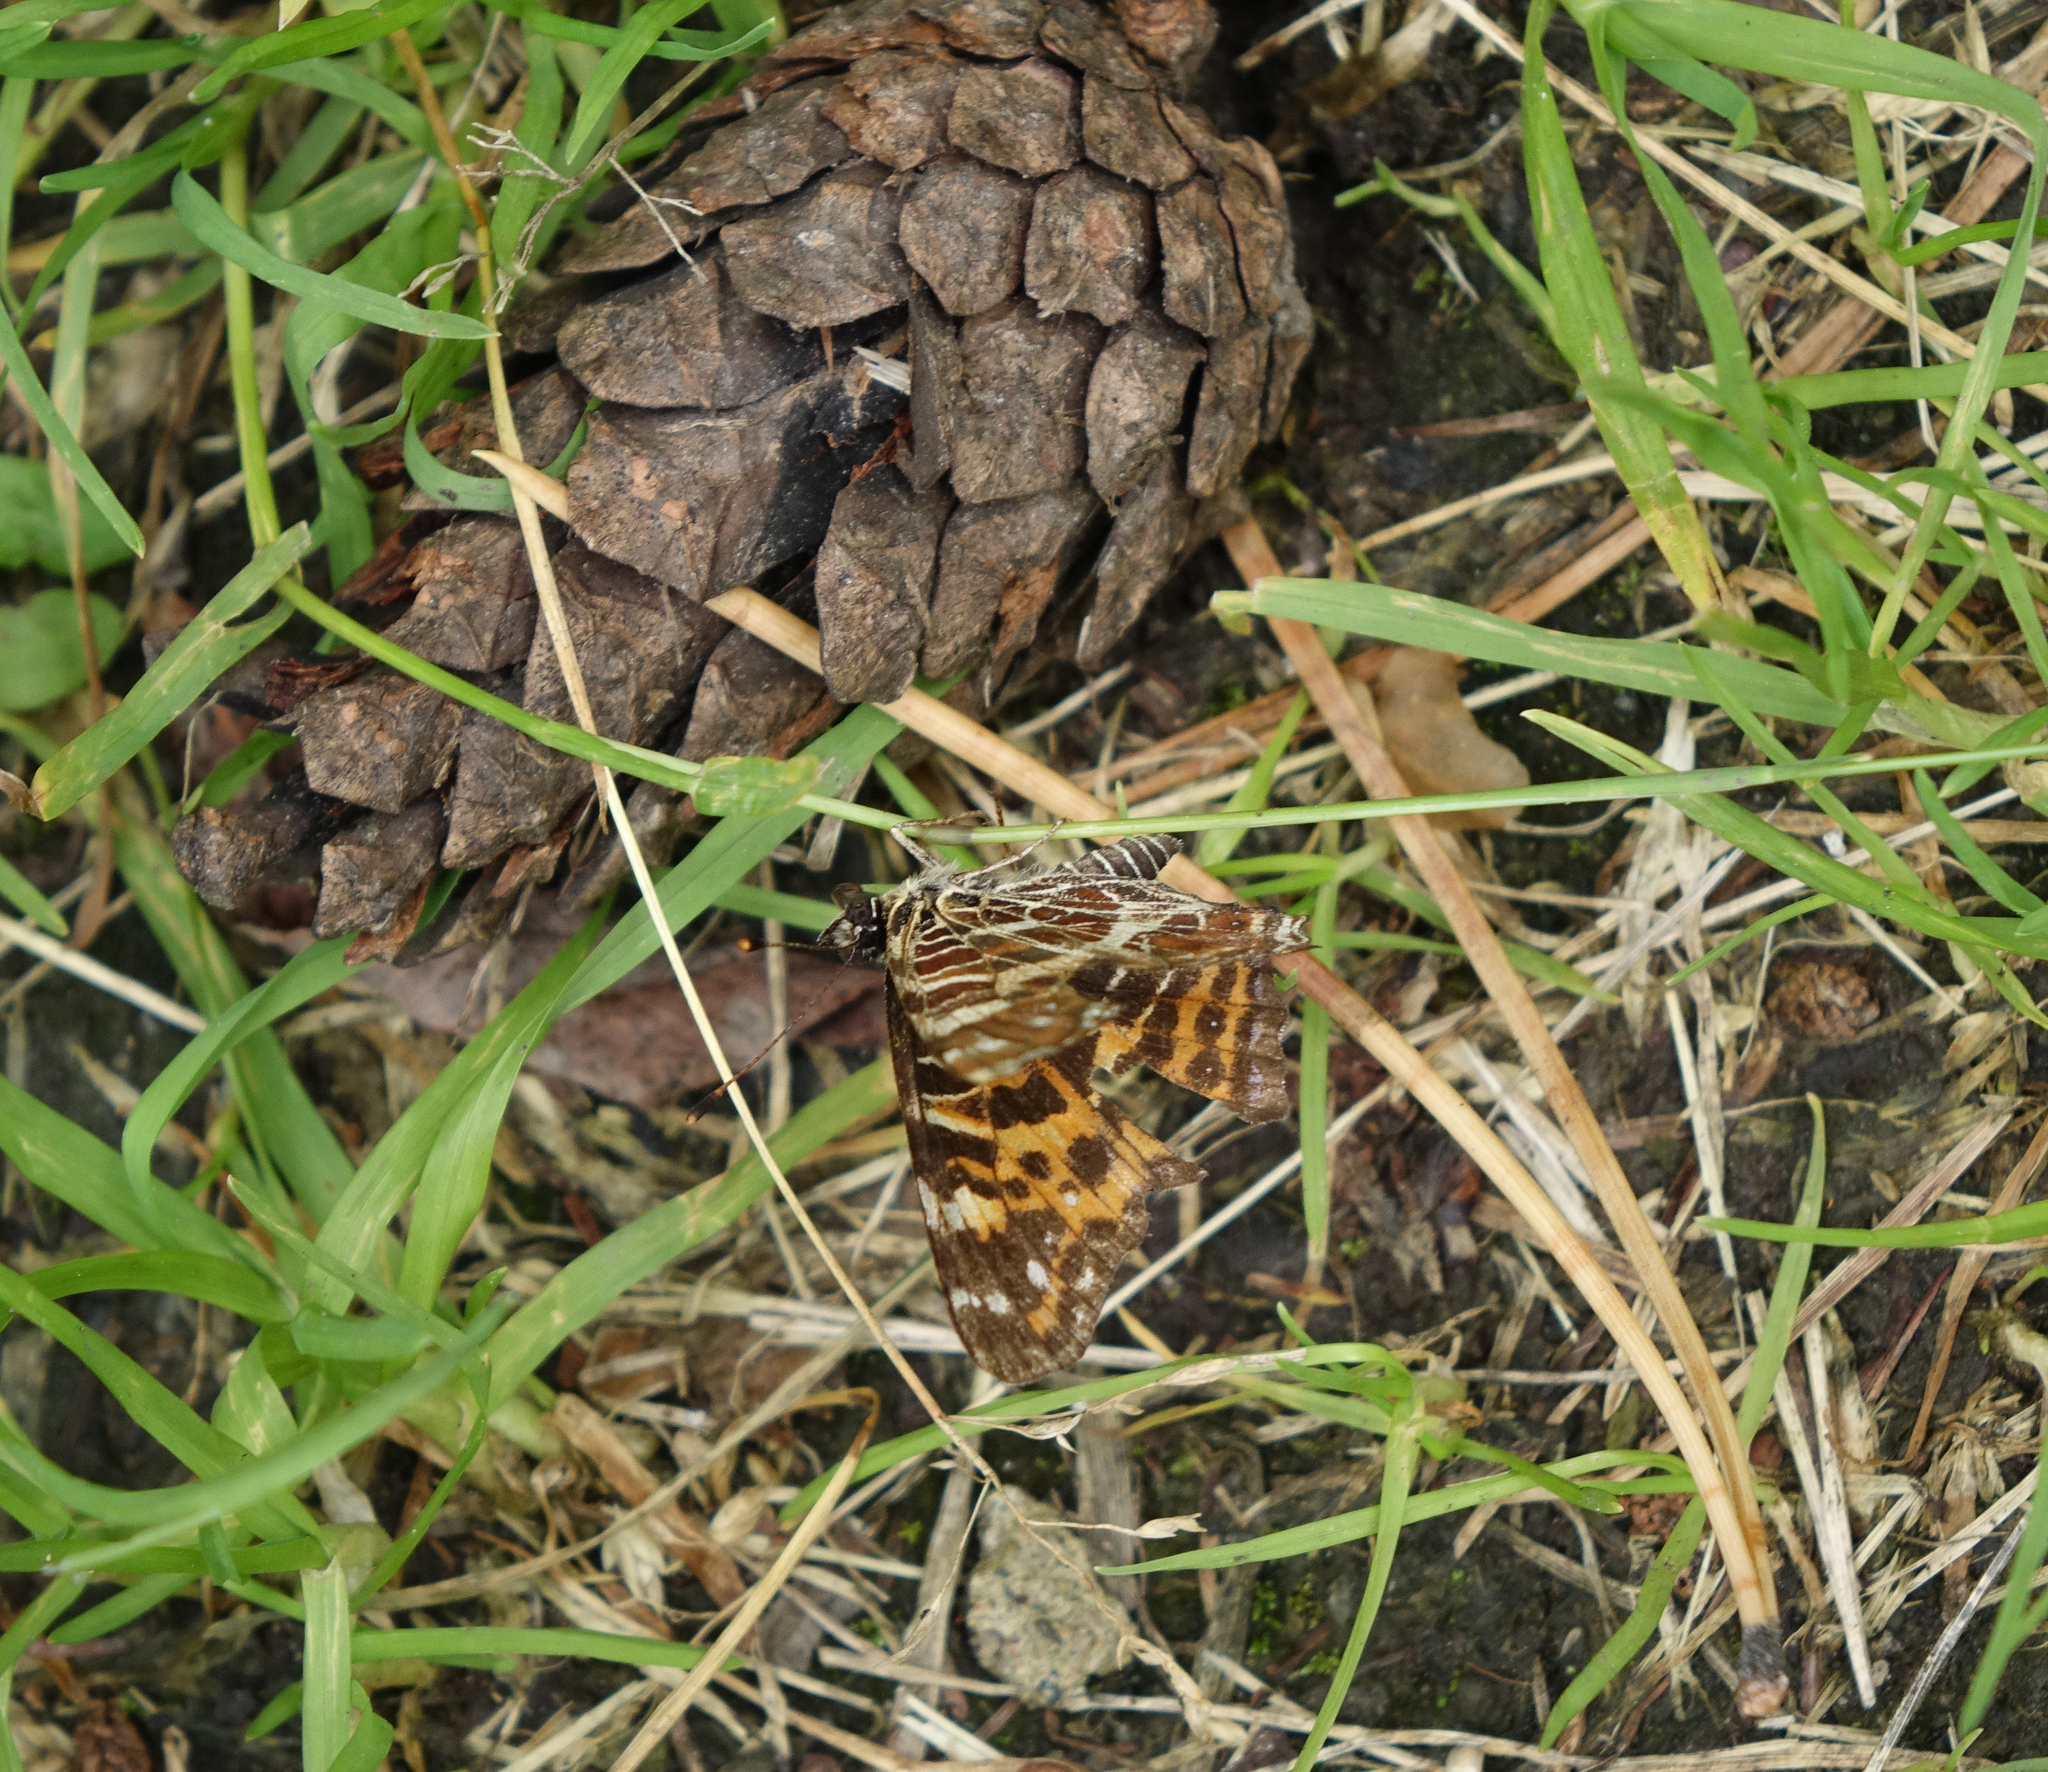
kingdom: Animalia
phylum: Arthropoda
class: Insecta
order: Lepidoptera
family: Nymphalidae
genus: Araschnia
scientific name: Araschnia levana
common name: Map butterfly
